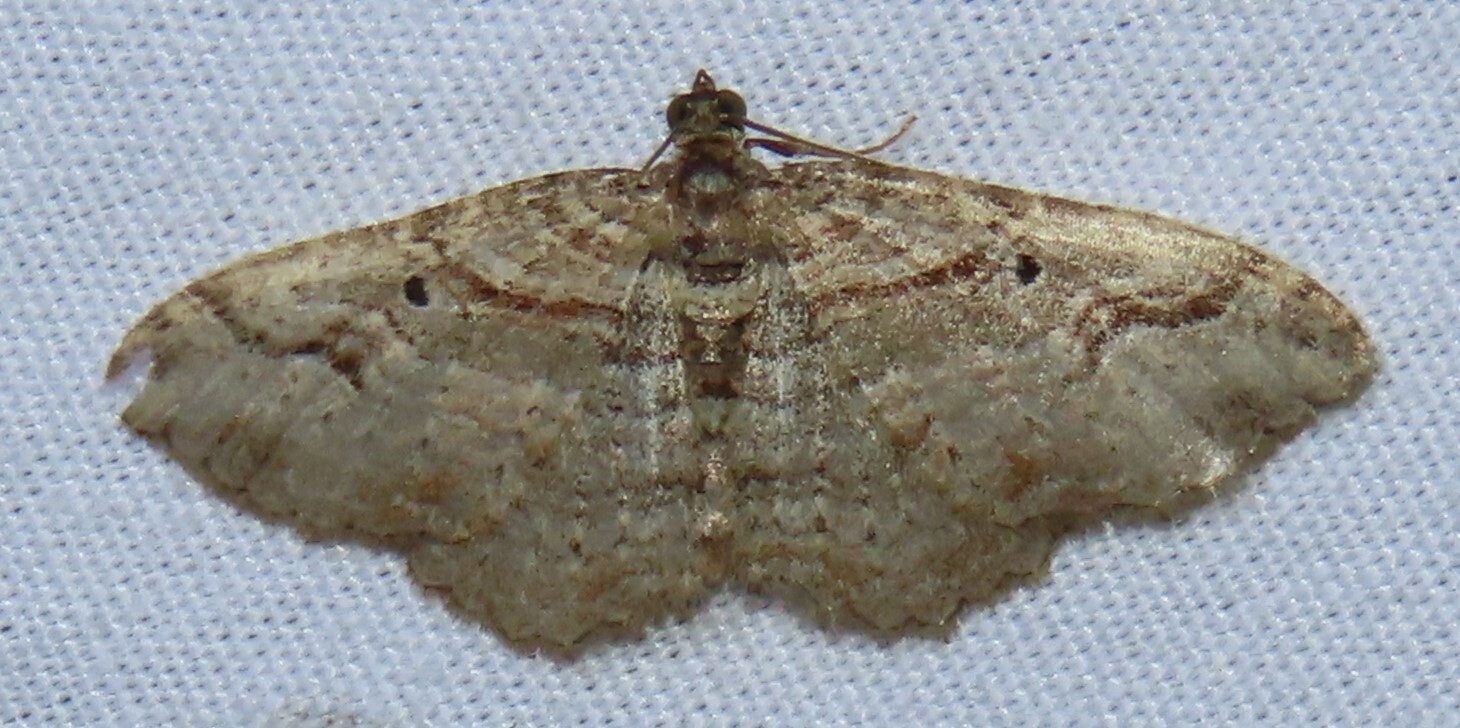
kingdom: Animalia
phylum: Arthropoda
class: Insecta
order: Lepidoptera
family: Geometridae
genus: Costaconvexa
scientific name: Costaconvexa centrostrigaria
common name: Bent-line carpet
